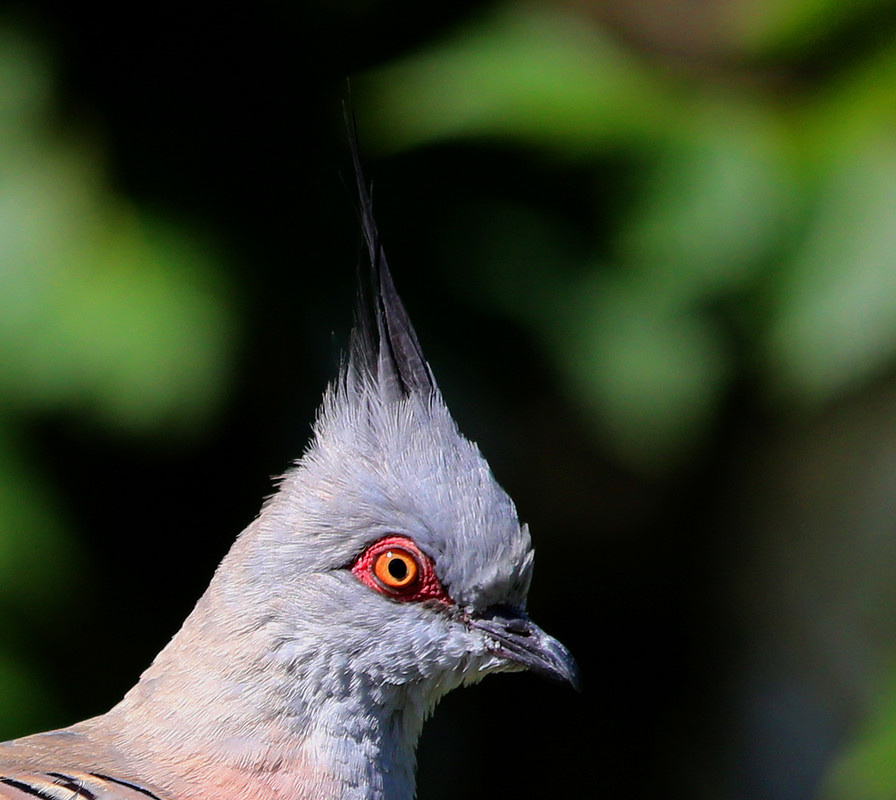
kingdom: Animalia
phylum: Chordata
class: Aves
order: Columbiformes
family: Columbidae
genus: Ocyphaps
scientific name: Ocyphaps lophotes
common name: Crested pigeon
